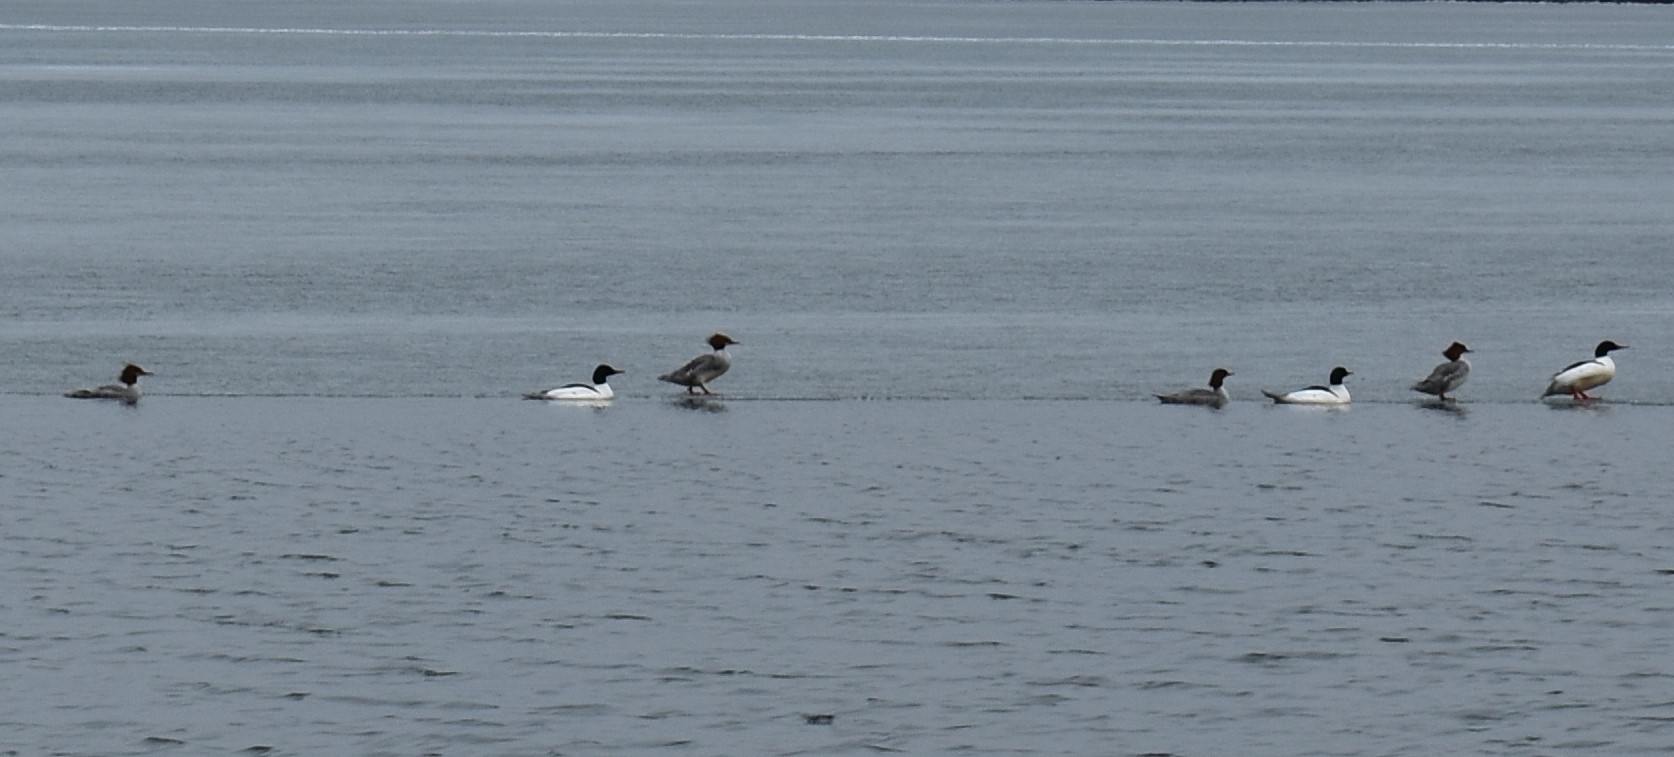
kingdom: Animalia
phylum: Chordata
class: Aves
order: Anseriformes
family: Anatidae
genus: Mergus
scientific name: Mergus merganser
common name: Common merganser
